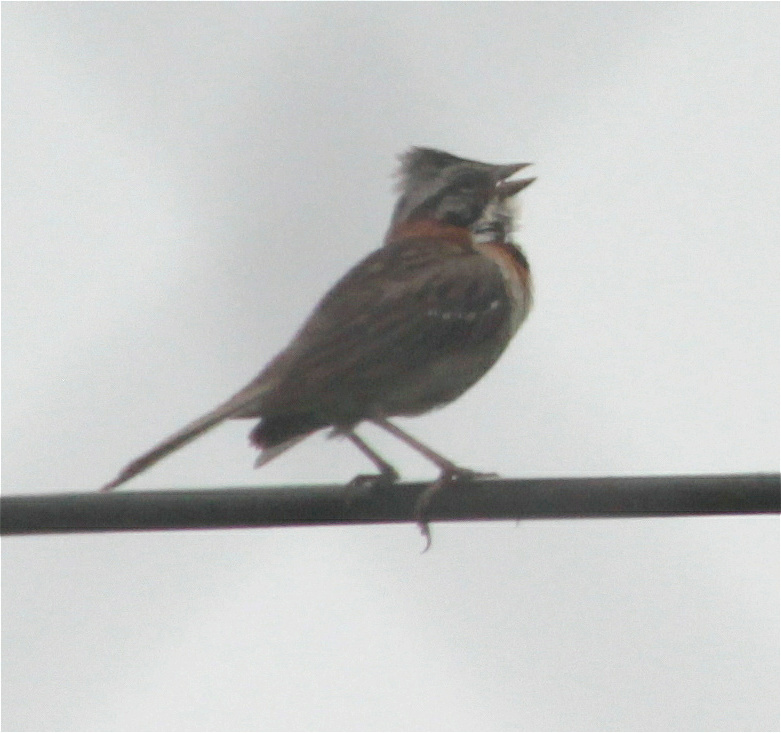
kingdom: Animalia
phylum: Chordata
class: Aves
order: Passeriformes
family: Passerellidae
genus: Zonotrichia
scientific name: Zonotrichia capensis
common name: Rufous-collared sparrow
